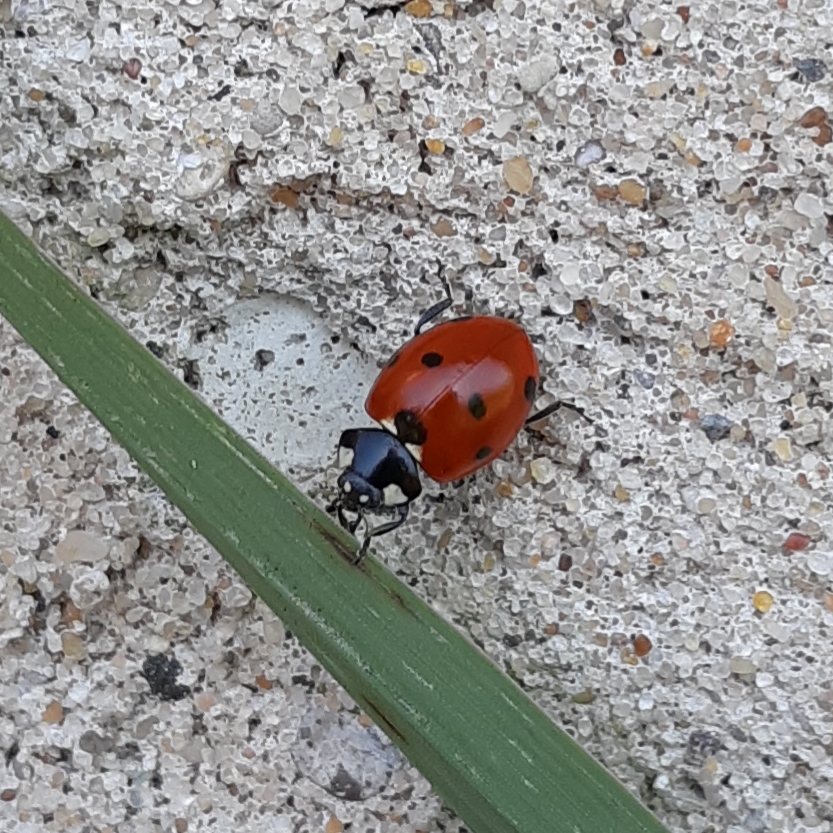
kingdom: Animalia
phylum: Arthropoda
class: Insecta
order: Coleoptera
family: Coccinellidae
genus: Coccinella
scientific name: Coccinella septempunctata
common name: Sevenspotted lady beetle
